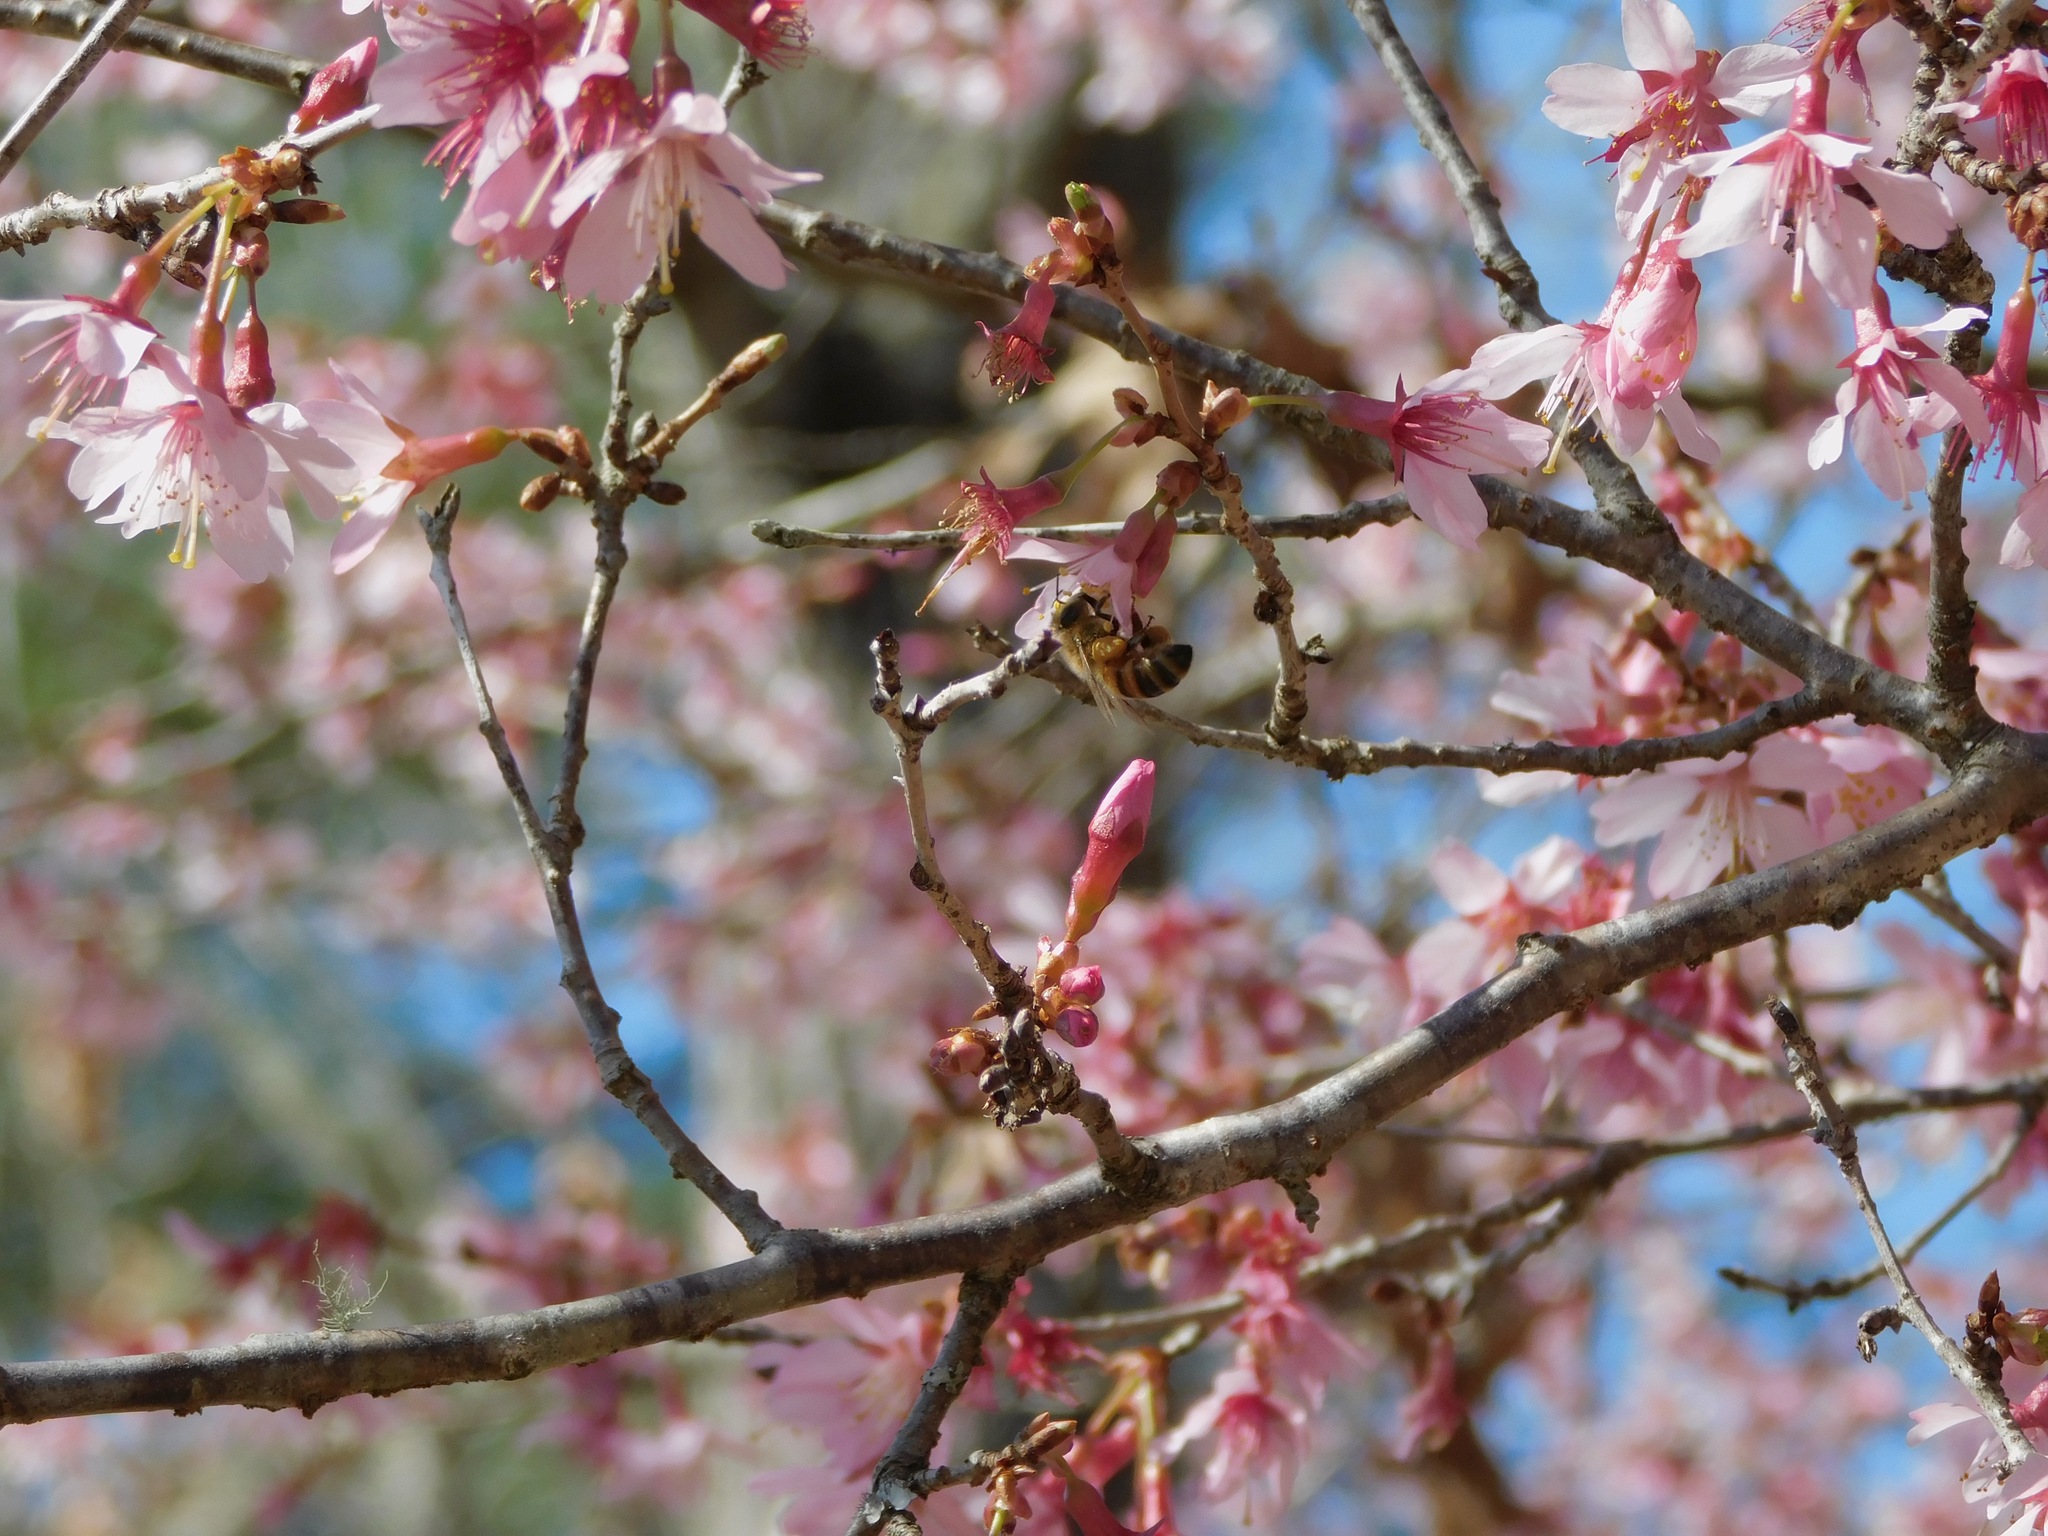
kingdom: Animalia
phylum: Arthropoda
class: Insecta
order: Hymenoptera
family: Apidae
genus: Apis
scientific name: Apis mellifera
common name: Honey bee
